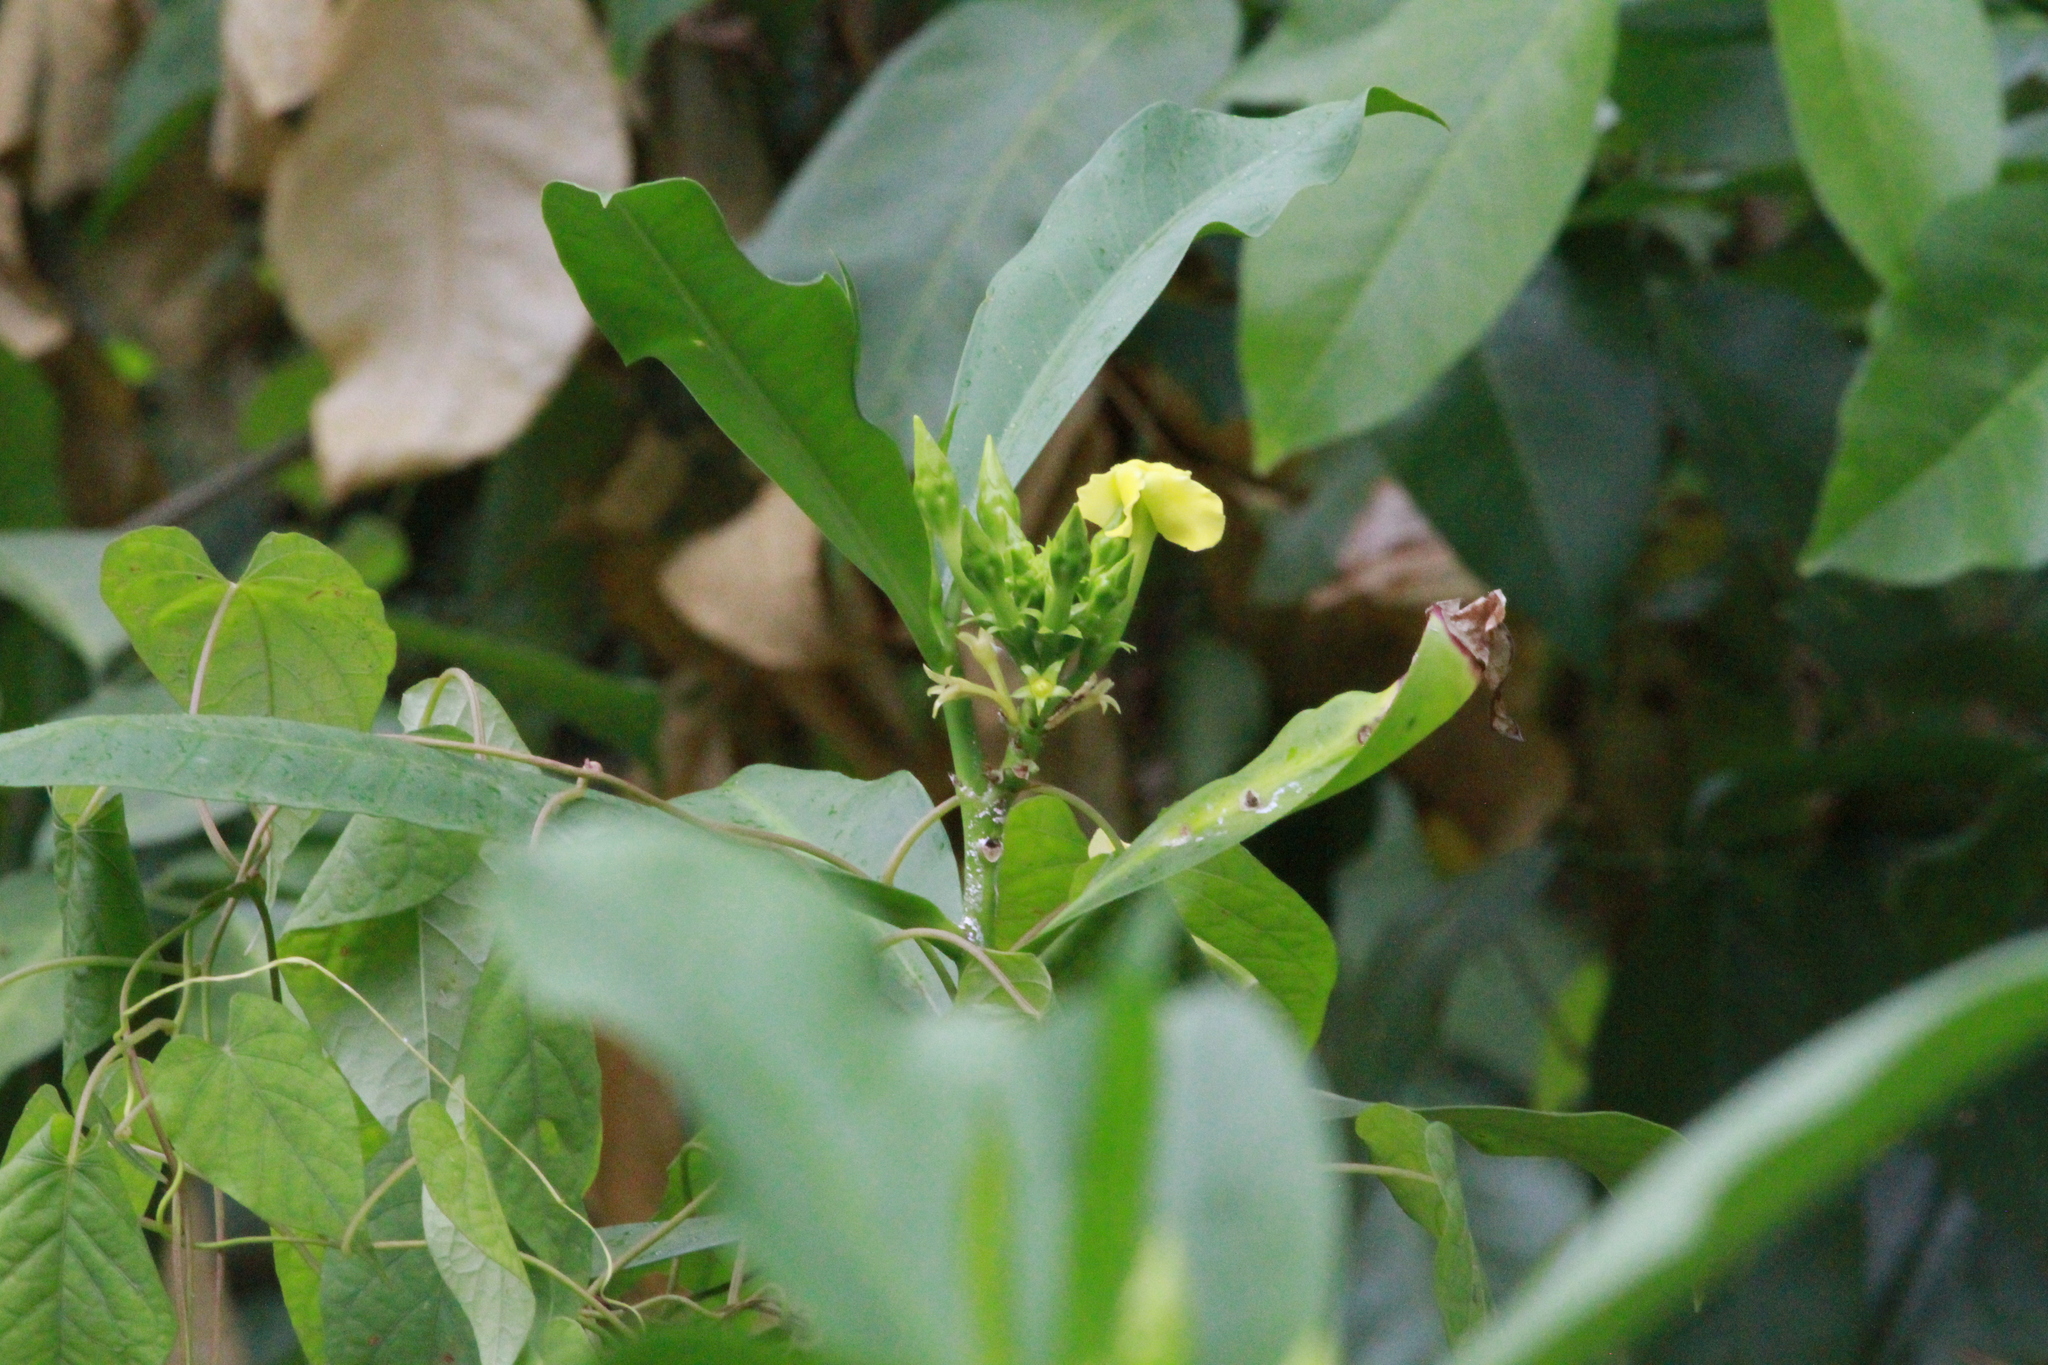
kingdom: Plantae
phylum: Tracheophyta
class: Magnoliopsida
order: Gentianales
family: Apocynaceae
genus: Thevetia
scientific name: Thevetia ahouai
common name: Broadleaf thevetia
